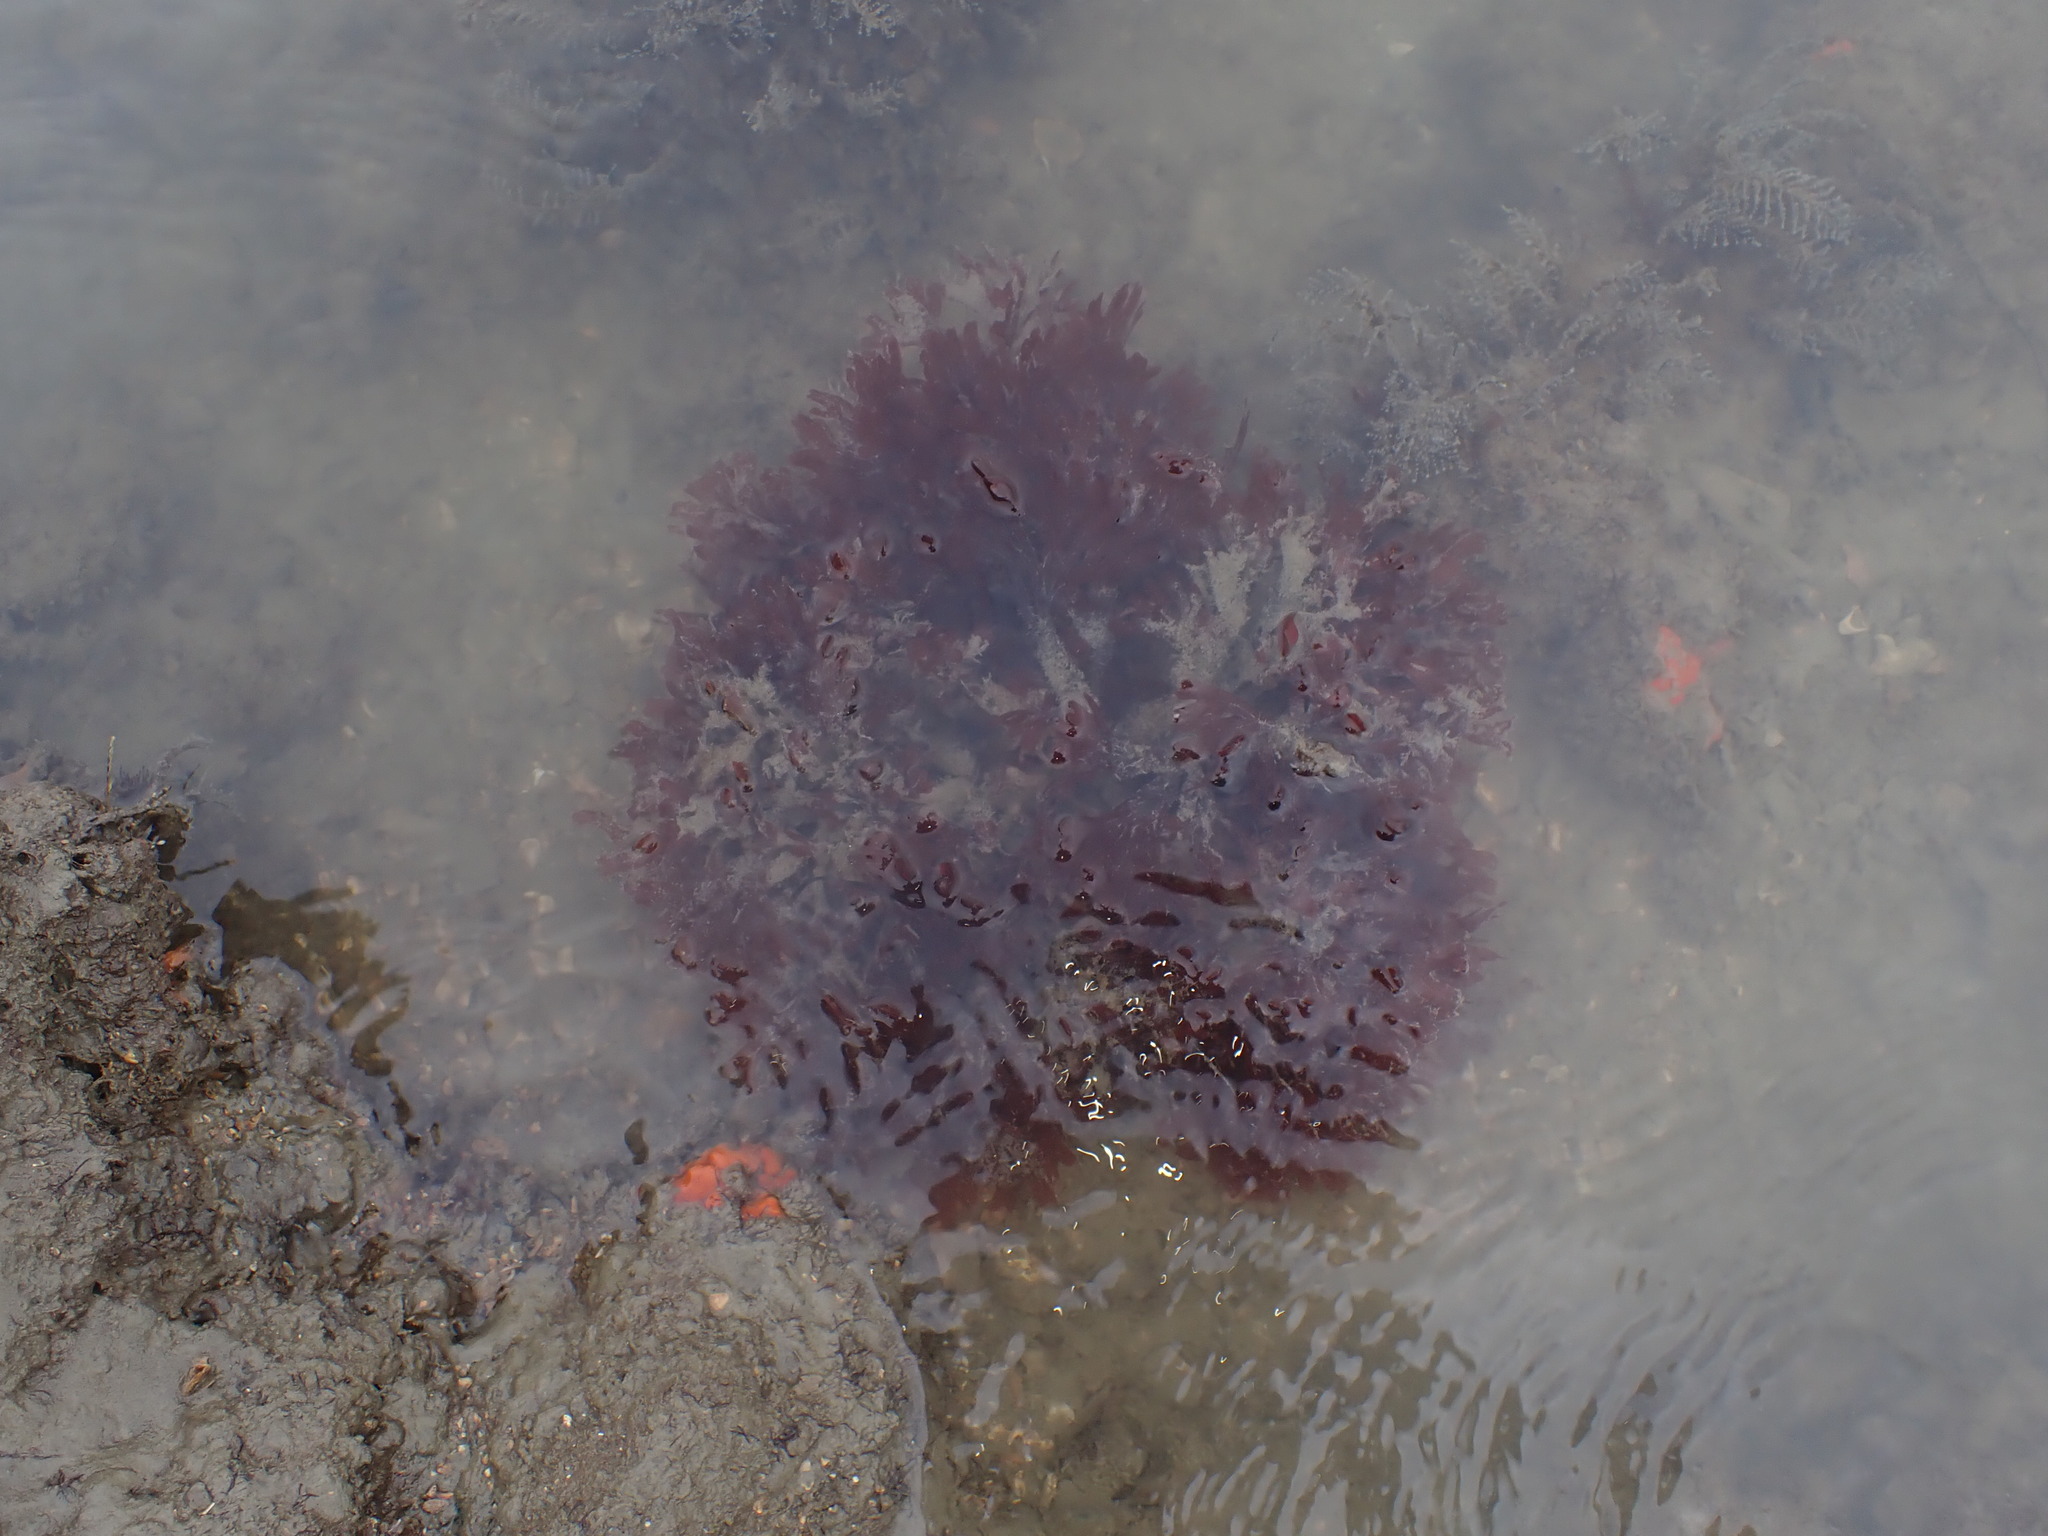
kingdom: Plantae
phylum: Rhodophyta
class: Florideophyceae
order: Gigartinales
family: Phyllophoraceae
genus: Stenogramma
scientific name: Stenogramma interruptum
